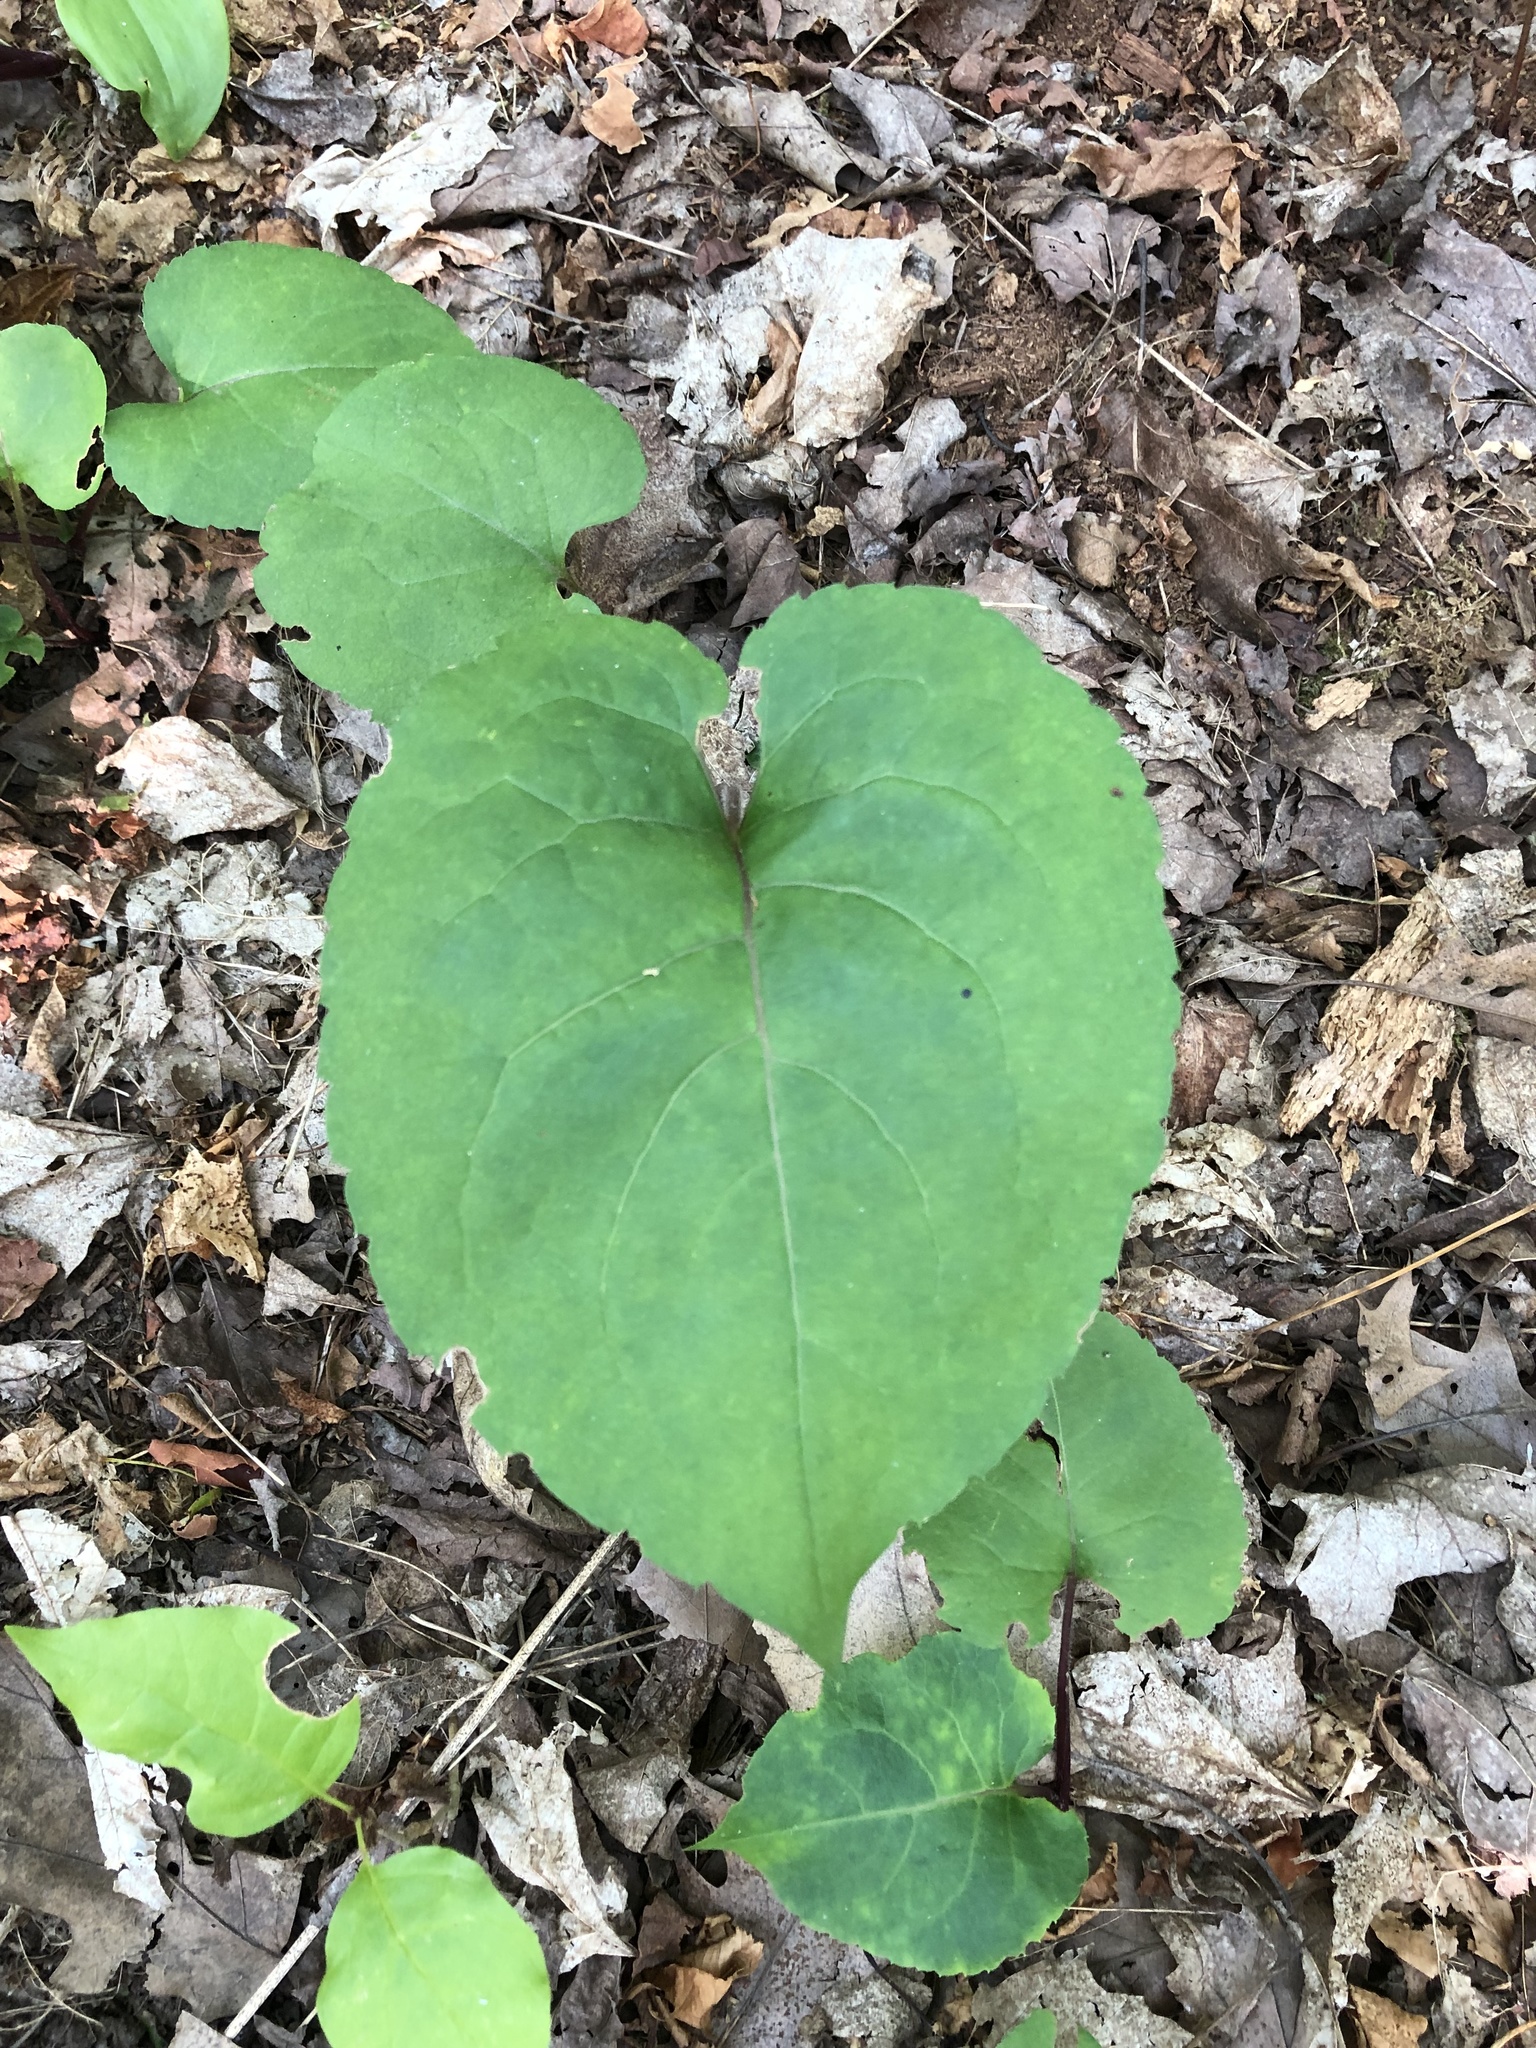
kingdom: Plantae
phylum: Tracheophyta
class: Magnoliopsida
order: Asterales
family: Asteraceae
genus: Eurybia
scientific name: Eurybia macrophylla
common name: Big-leaved aster
